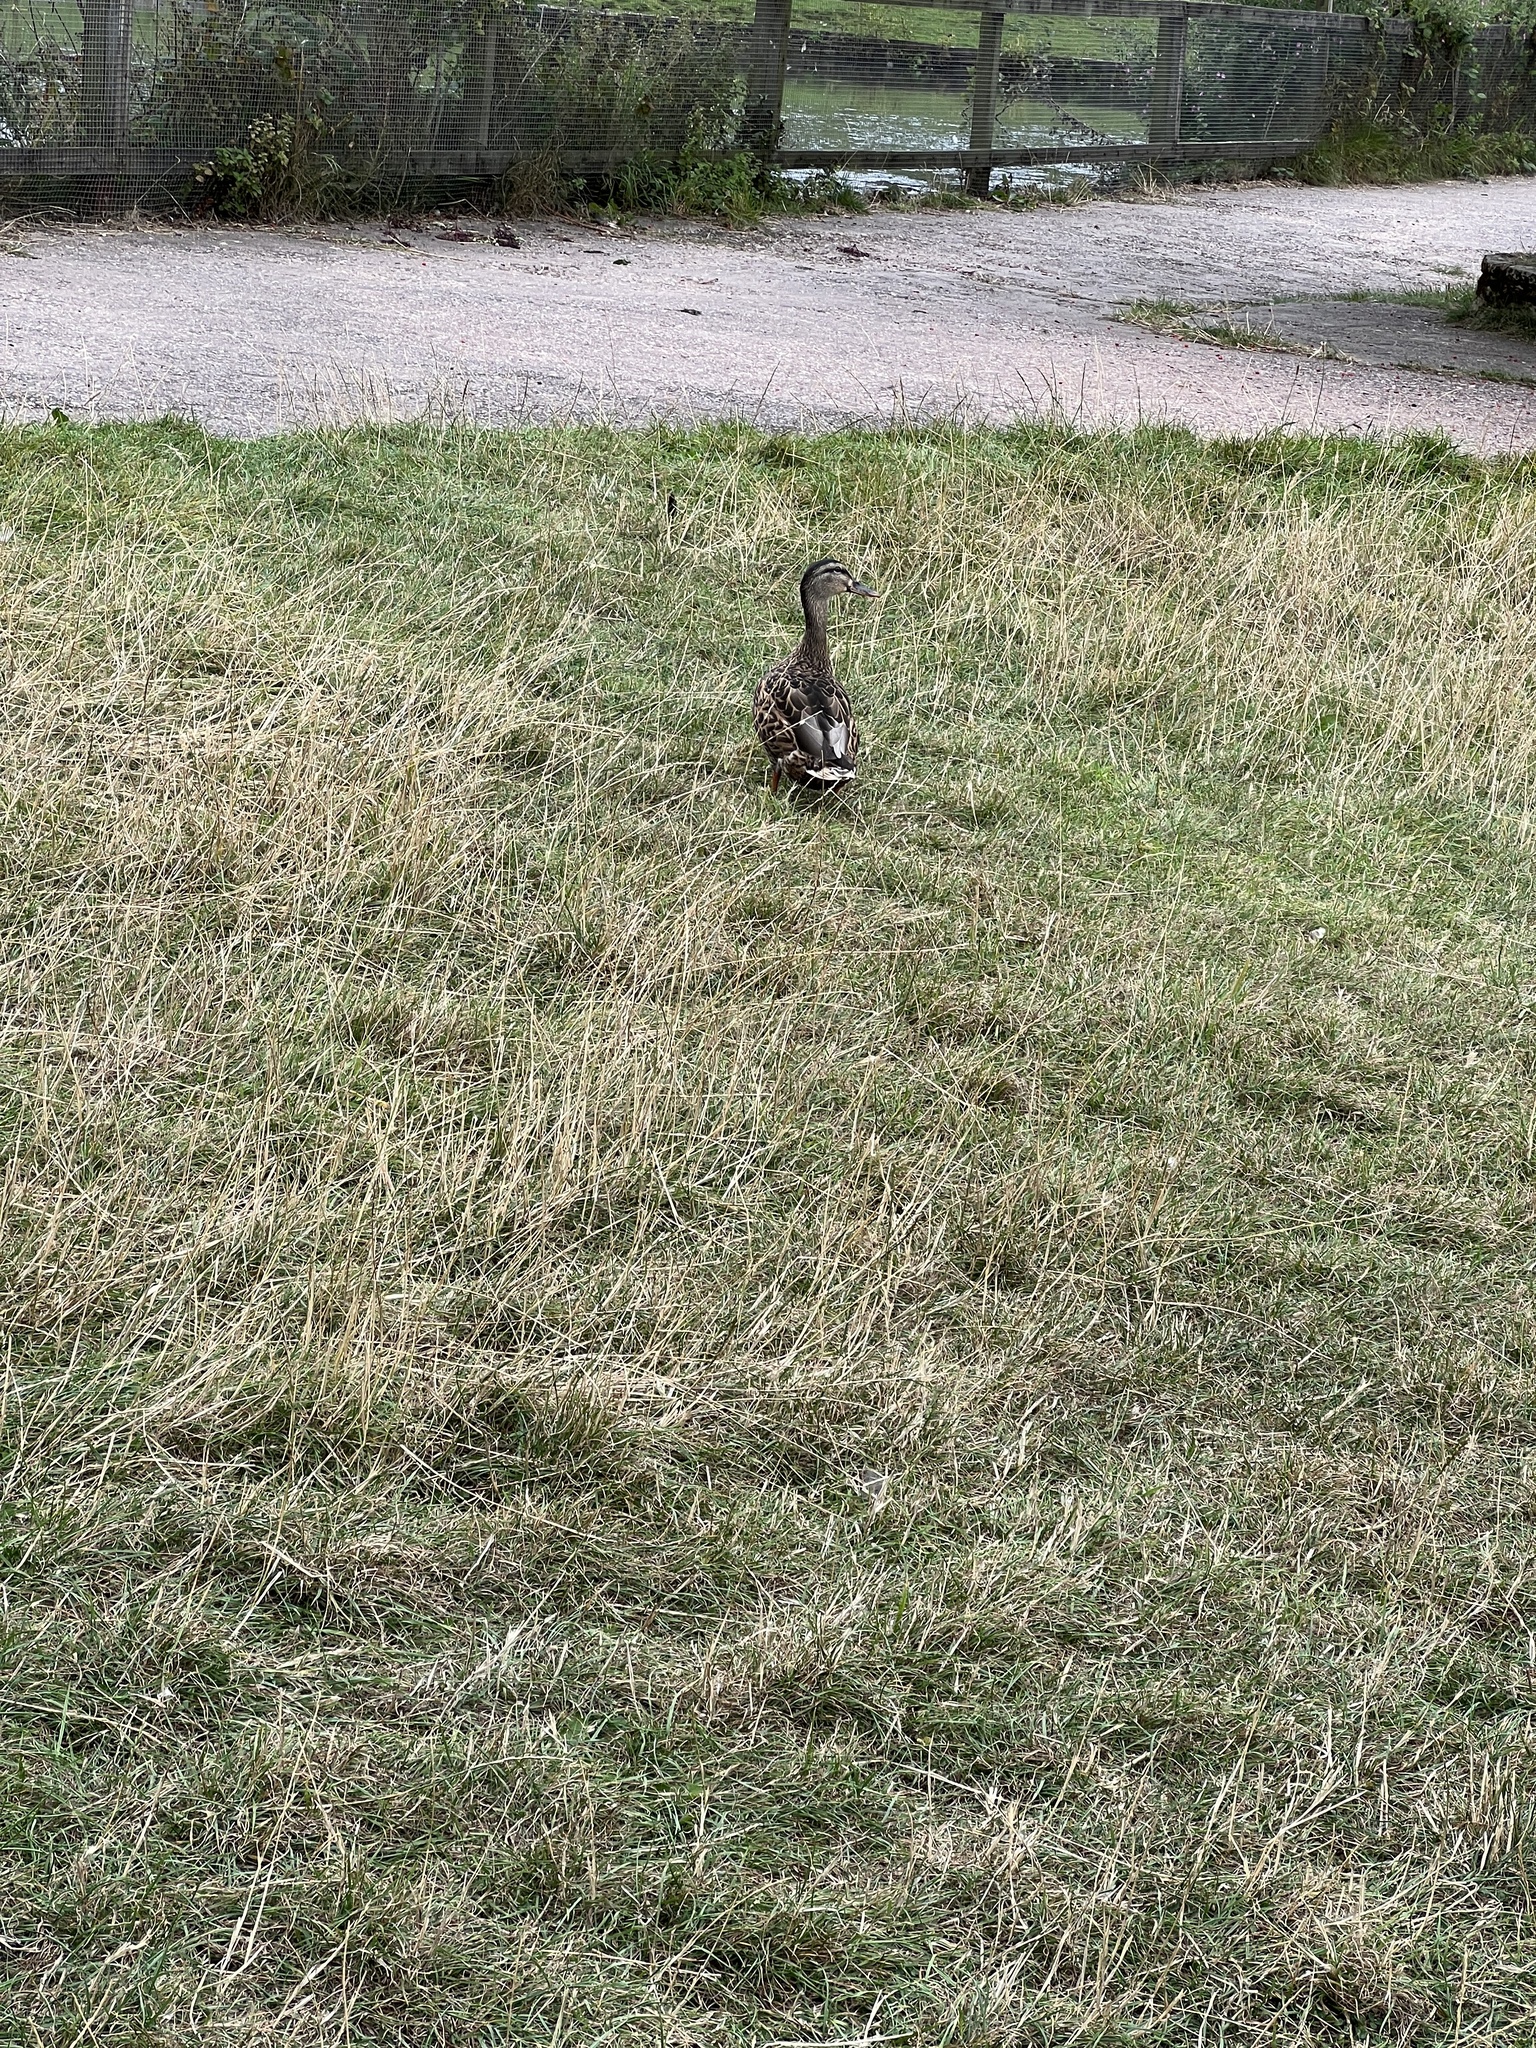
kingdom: Animalia
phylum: Chordata
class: Aves
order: Anseriformes
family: Anatidae
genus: Anas
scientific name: Anas platyrhynchos
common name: Mallard
